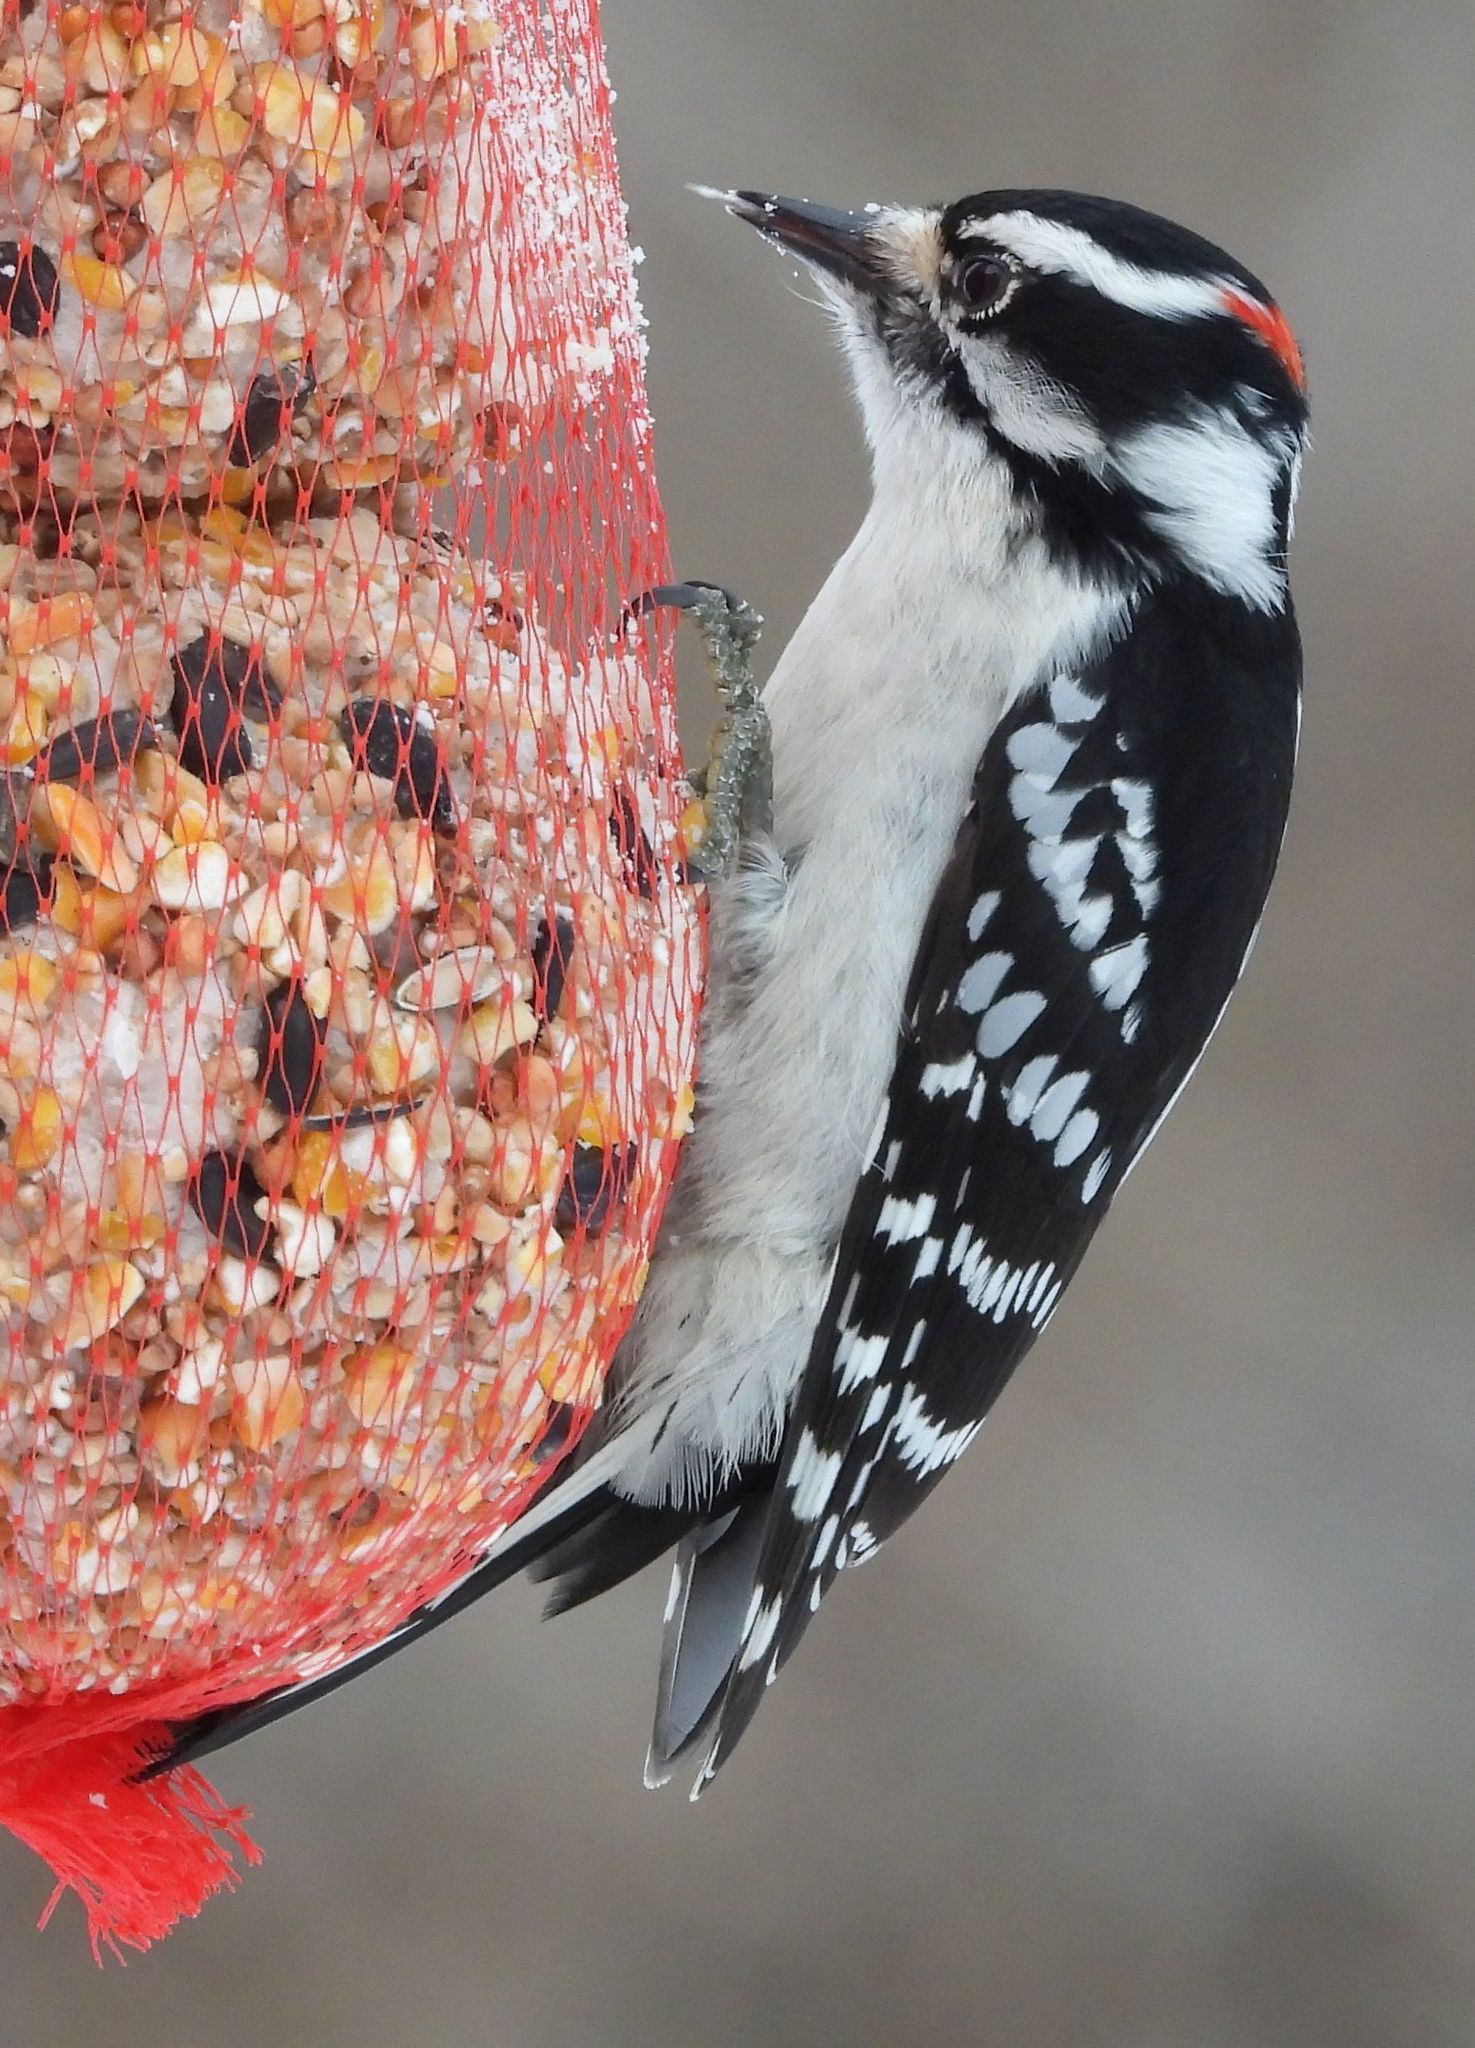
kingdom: Animalia
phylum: Chordata
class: Aves
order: Piciformes
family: Picidae
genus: Dryobates
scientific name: Dryobates pubescens
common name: Downy woodpecker
